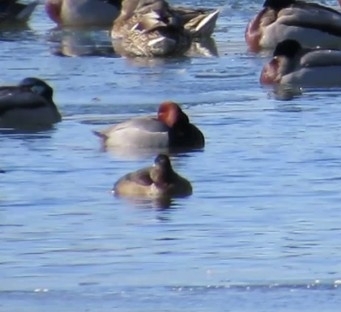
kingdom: Animalia
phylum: Chordata
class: Aves
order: Anseriformes
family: Anatidae
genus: Aythya
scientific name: Aythya americana
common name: Redhead
